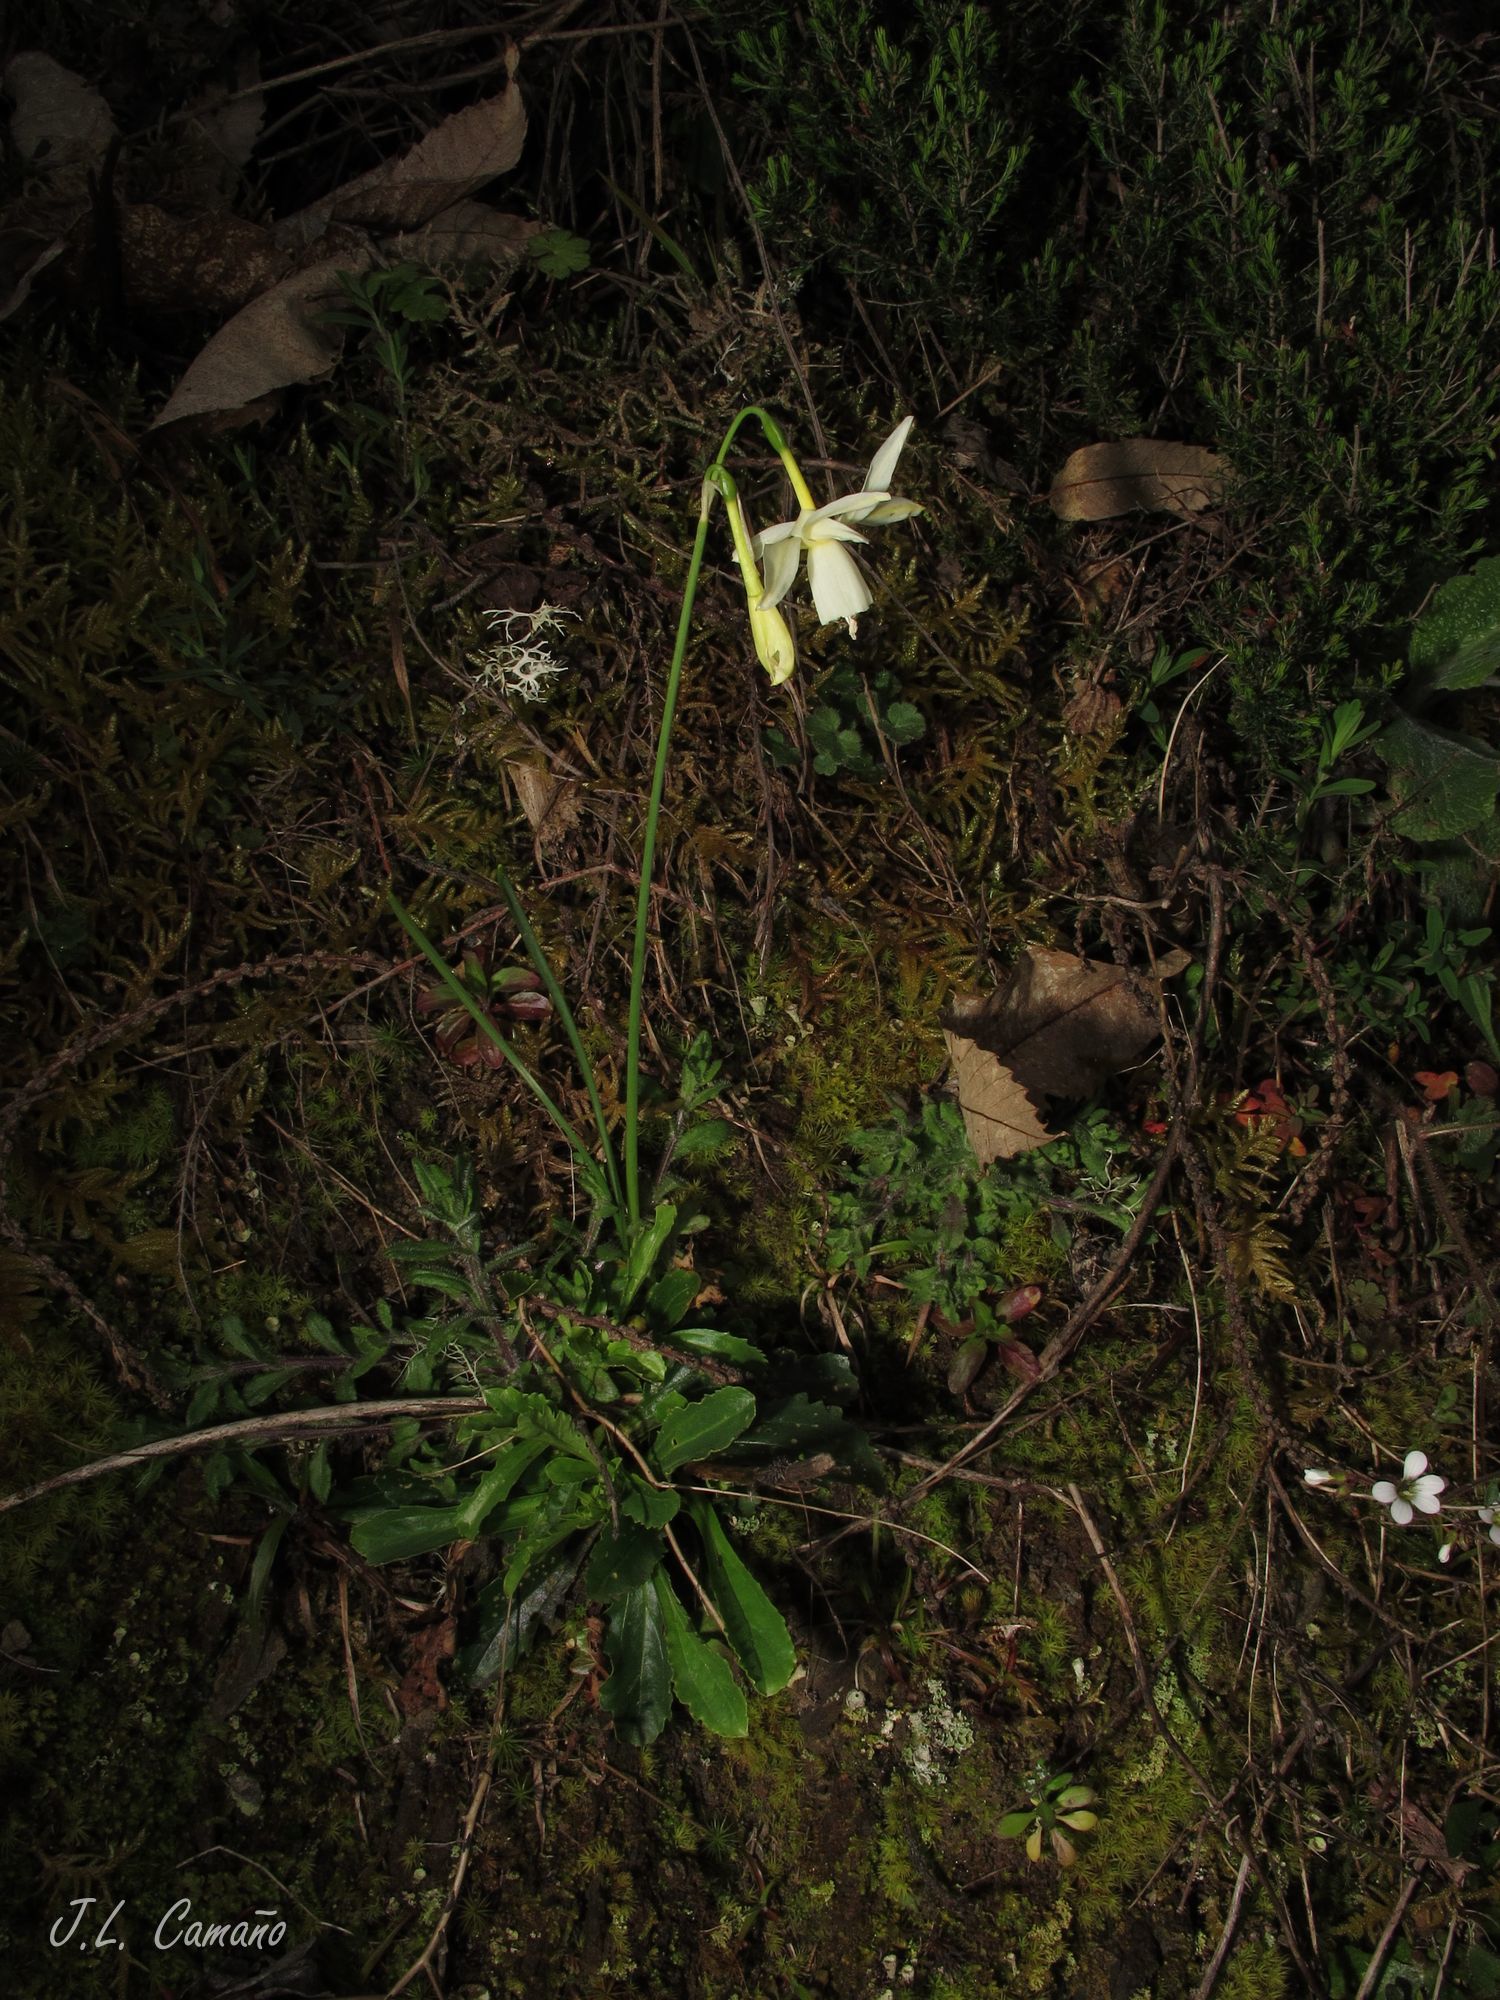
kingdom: Plantae
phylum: Tracheophyta
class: Liliopsida
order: Asparagales
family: Amaryllidaceae
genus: Narcissus
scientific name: Narcissus triandrus
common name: Angel's-tears
